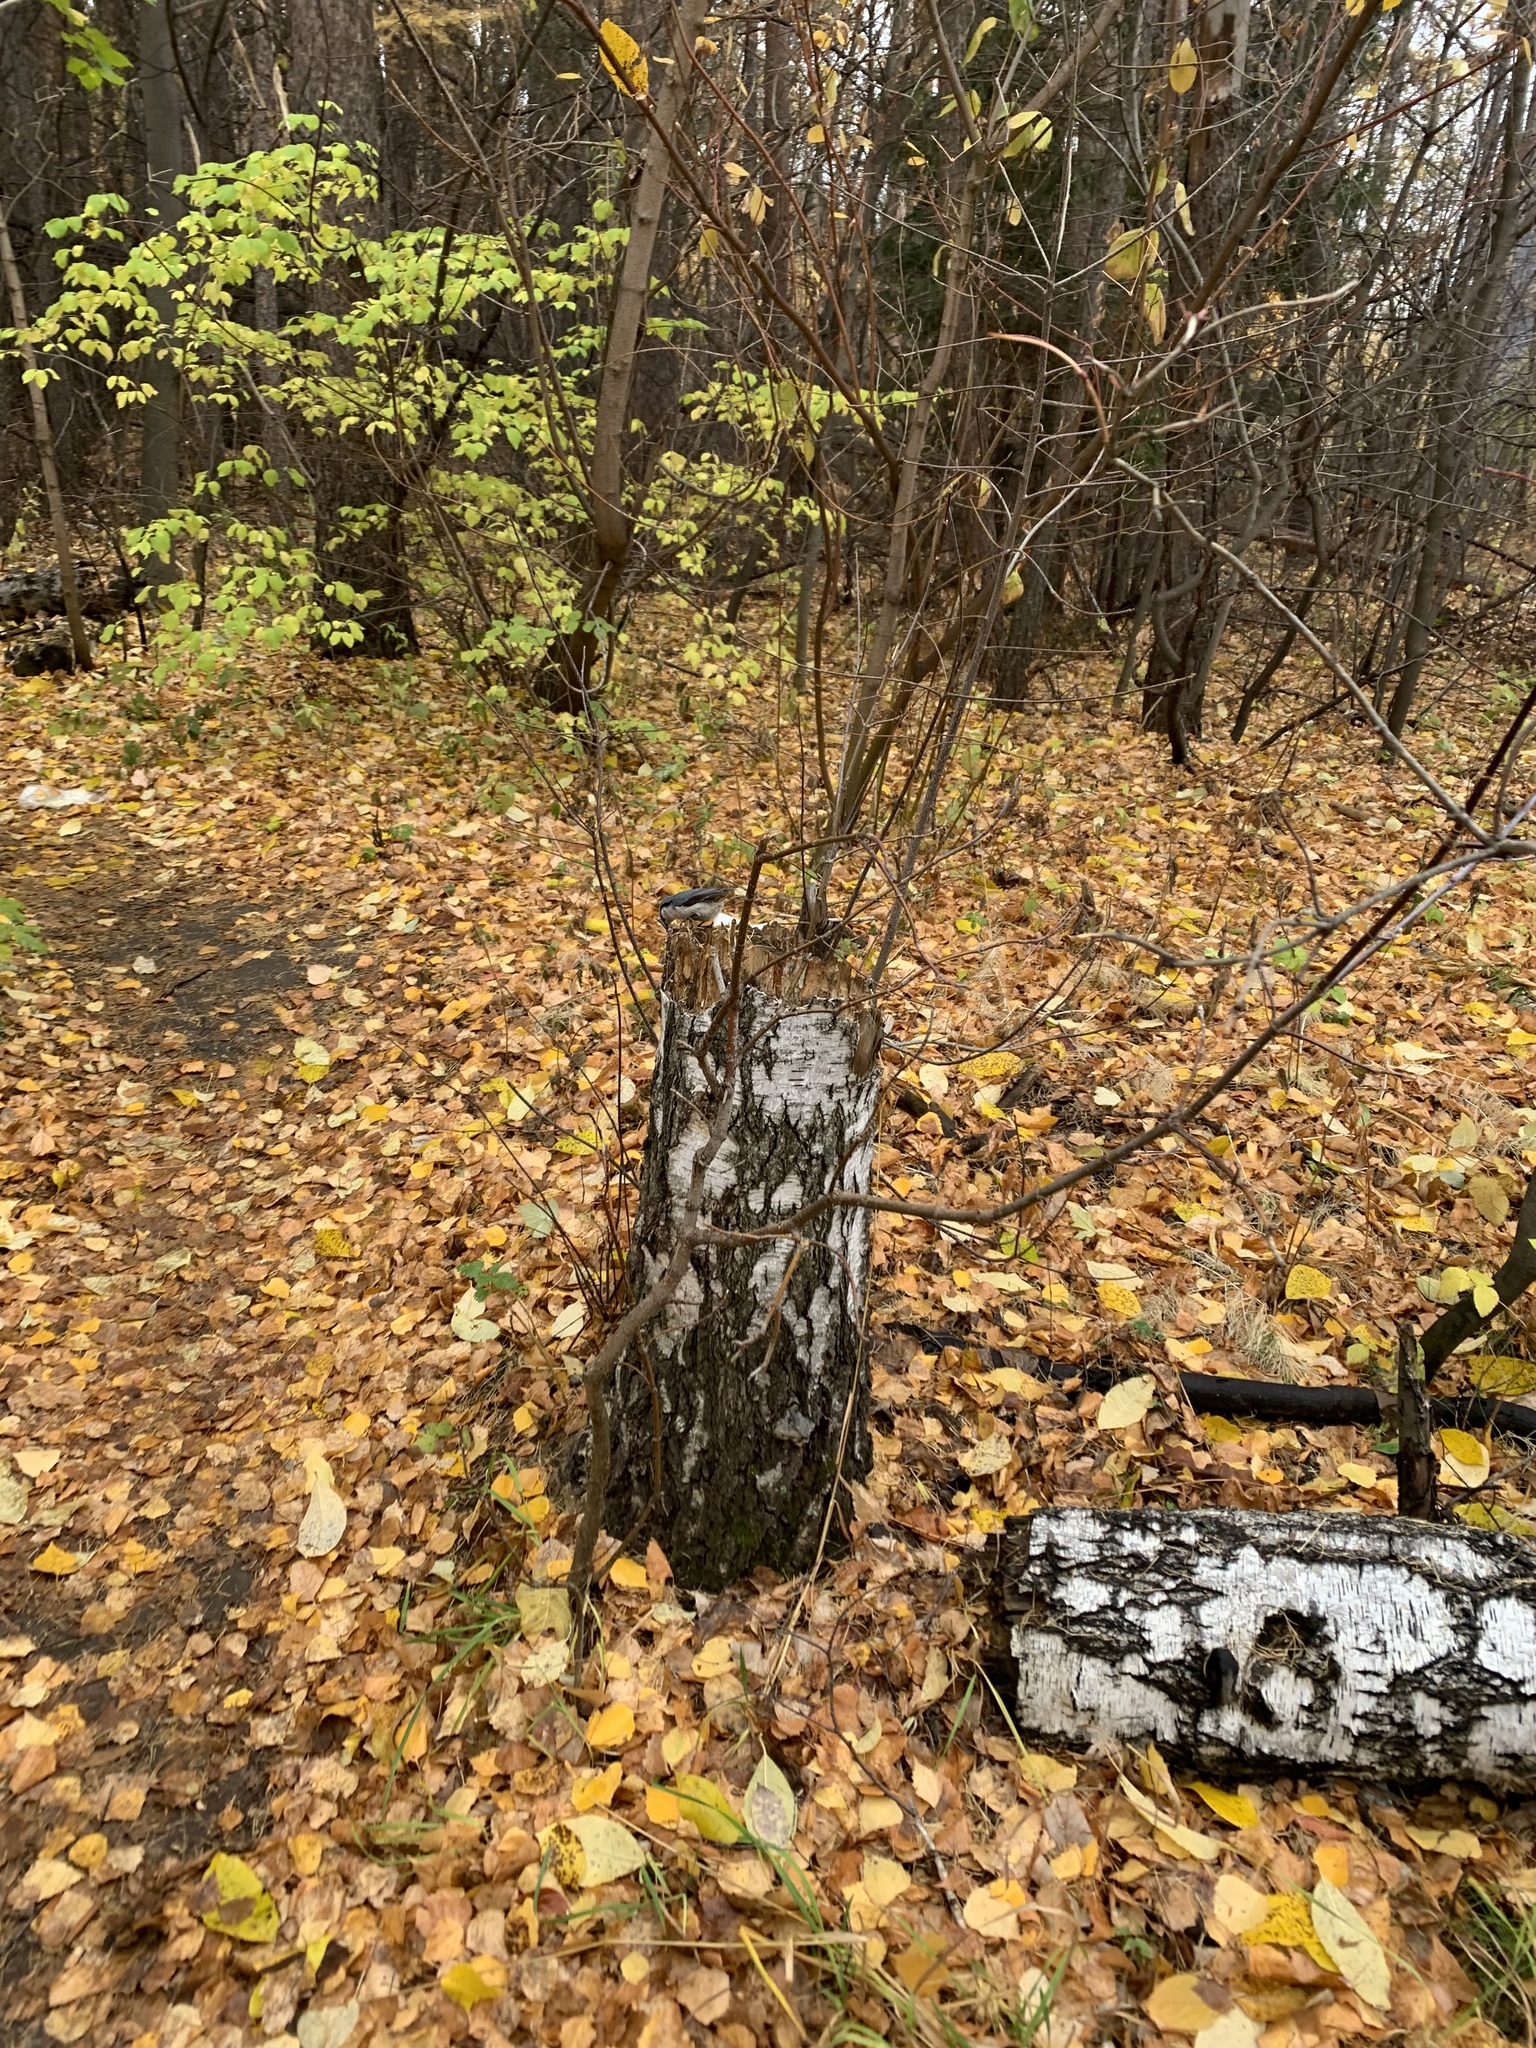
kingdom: Animalia
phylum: Chordata
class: Aves
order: Passeriformes
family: Sittidae
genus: Sitta
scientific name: Sitta europaea
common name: Eurasian nuthatch
